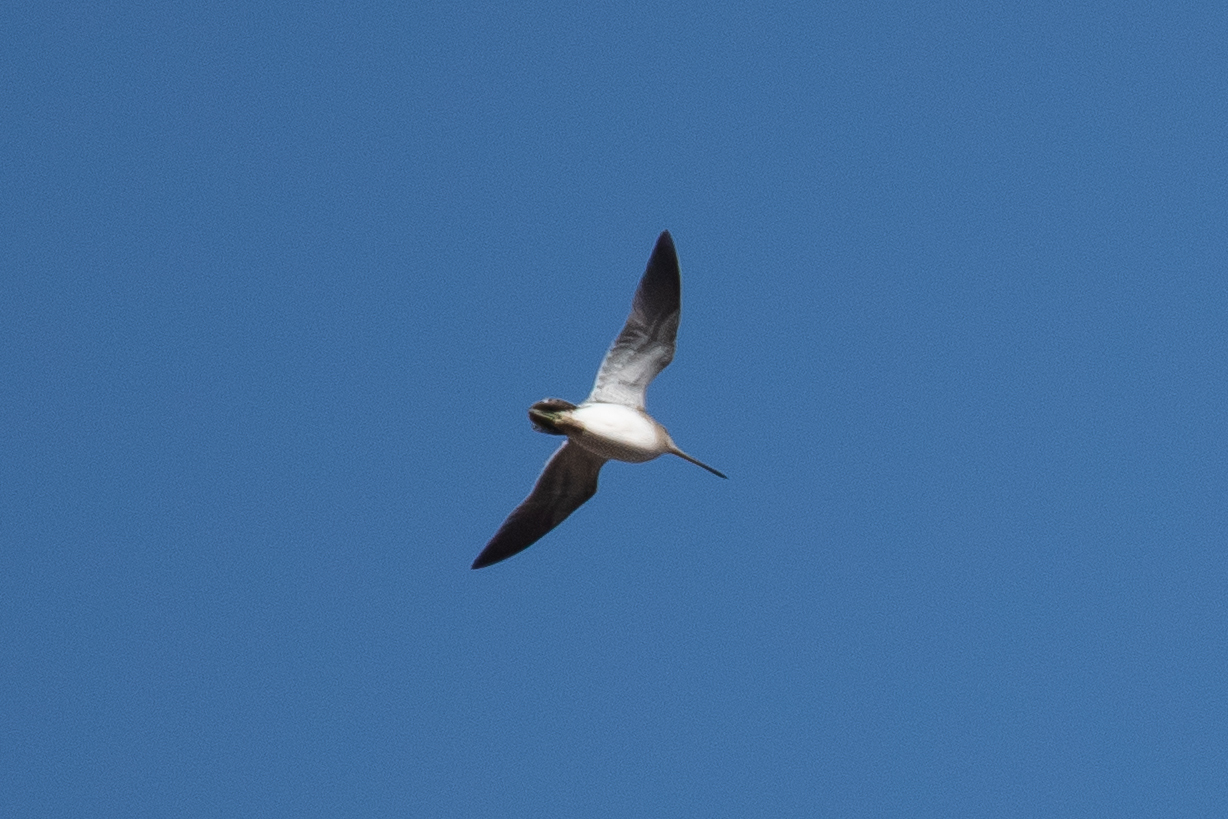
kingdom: Animalia
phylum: Chordata
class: Aves
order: Charadriiformes
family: Scolopacidae
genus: Gallinago
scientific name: Gallinago gallinago
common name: Common snipe
